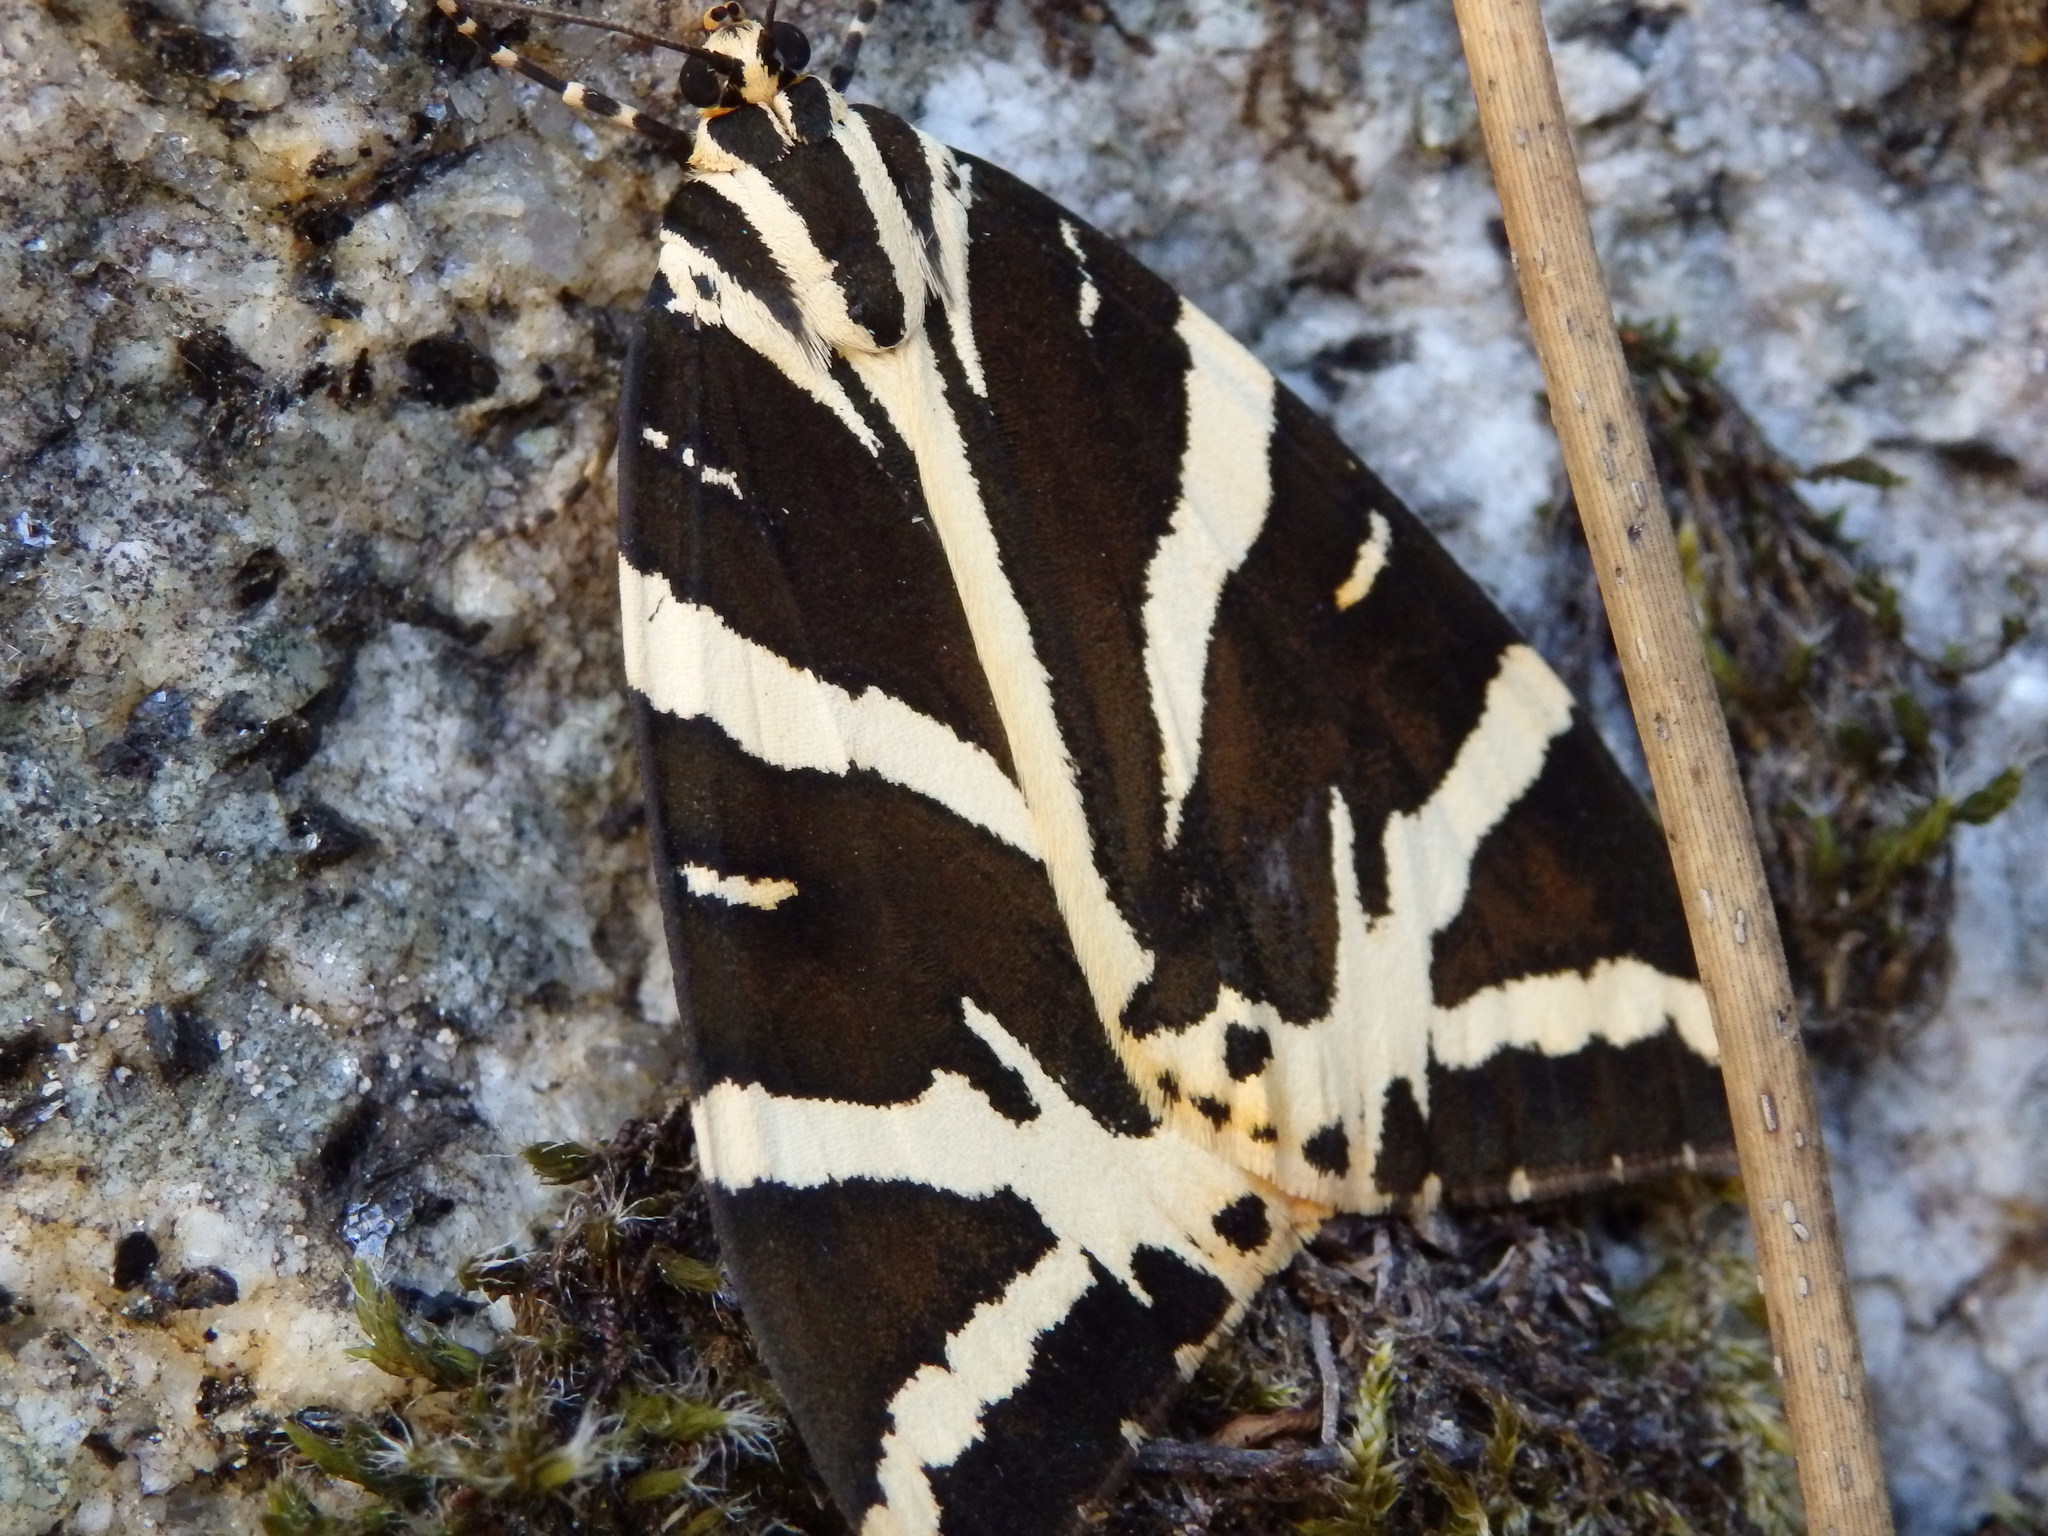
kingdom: Animalia
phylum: Arthropoda
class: Insecta
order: Lepidoptera
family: Erebidae
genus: Euplagia
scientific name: Euplagia quadripunctaria
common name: Jersey tiger
